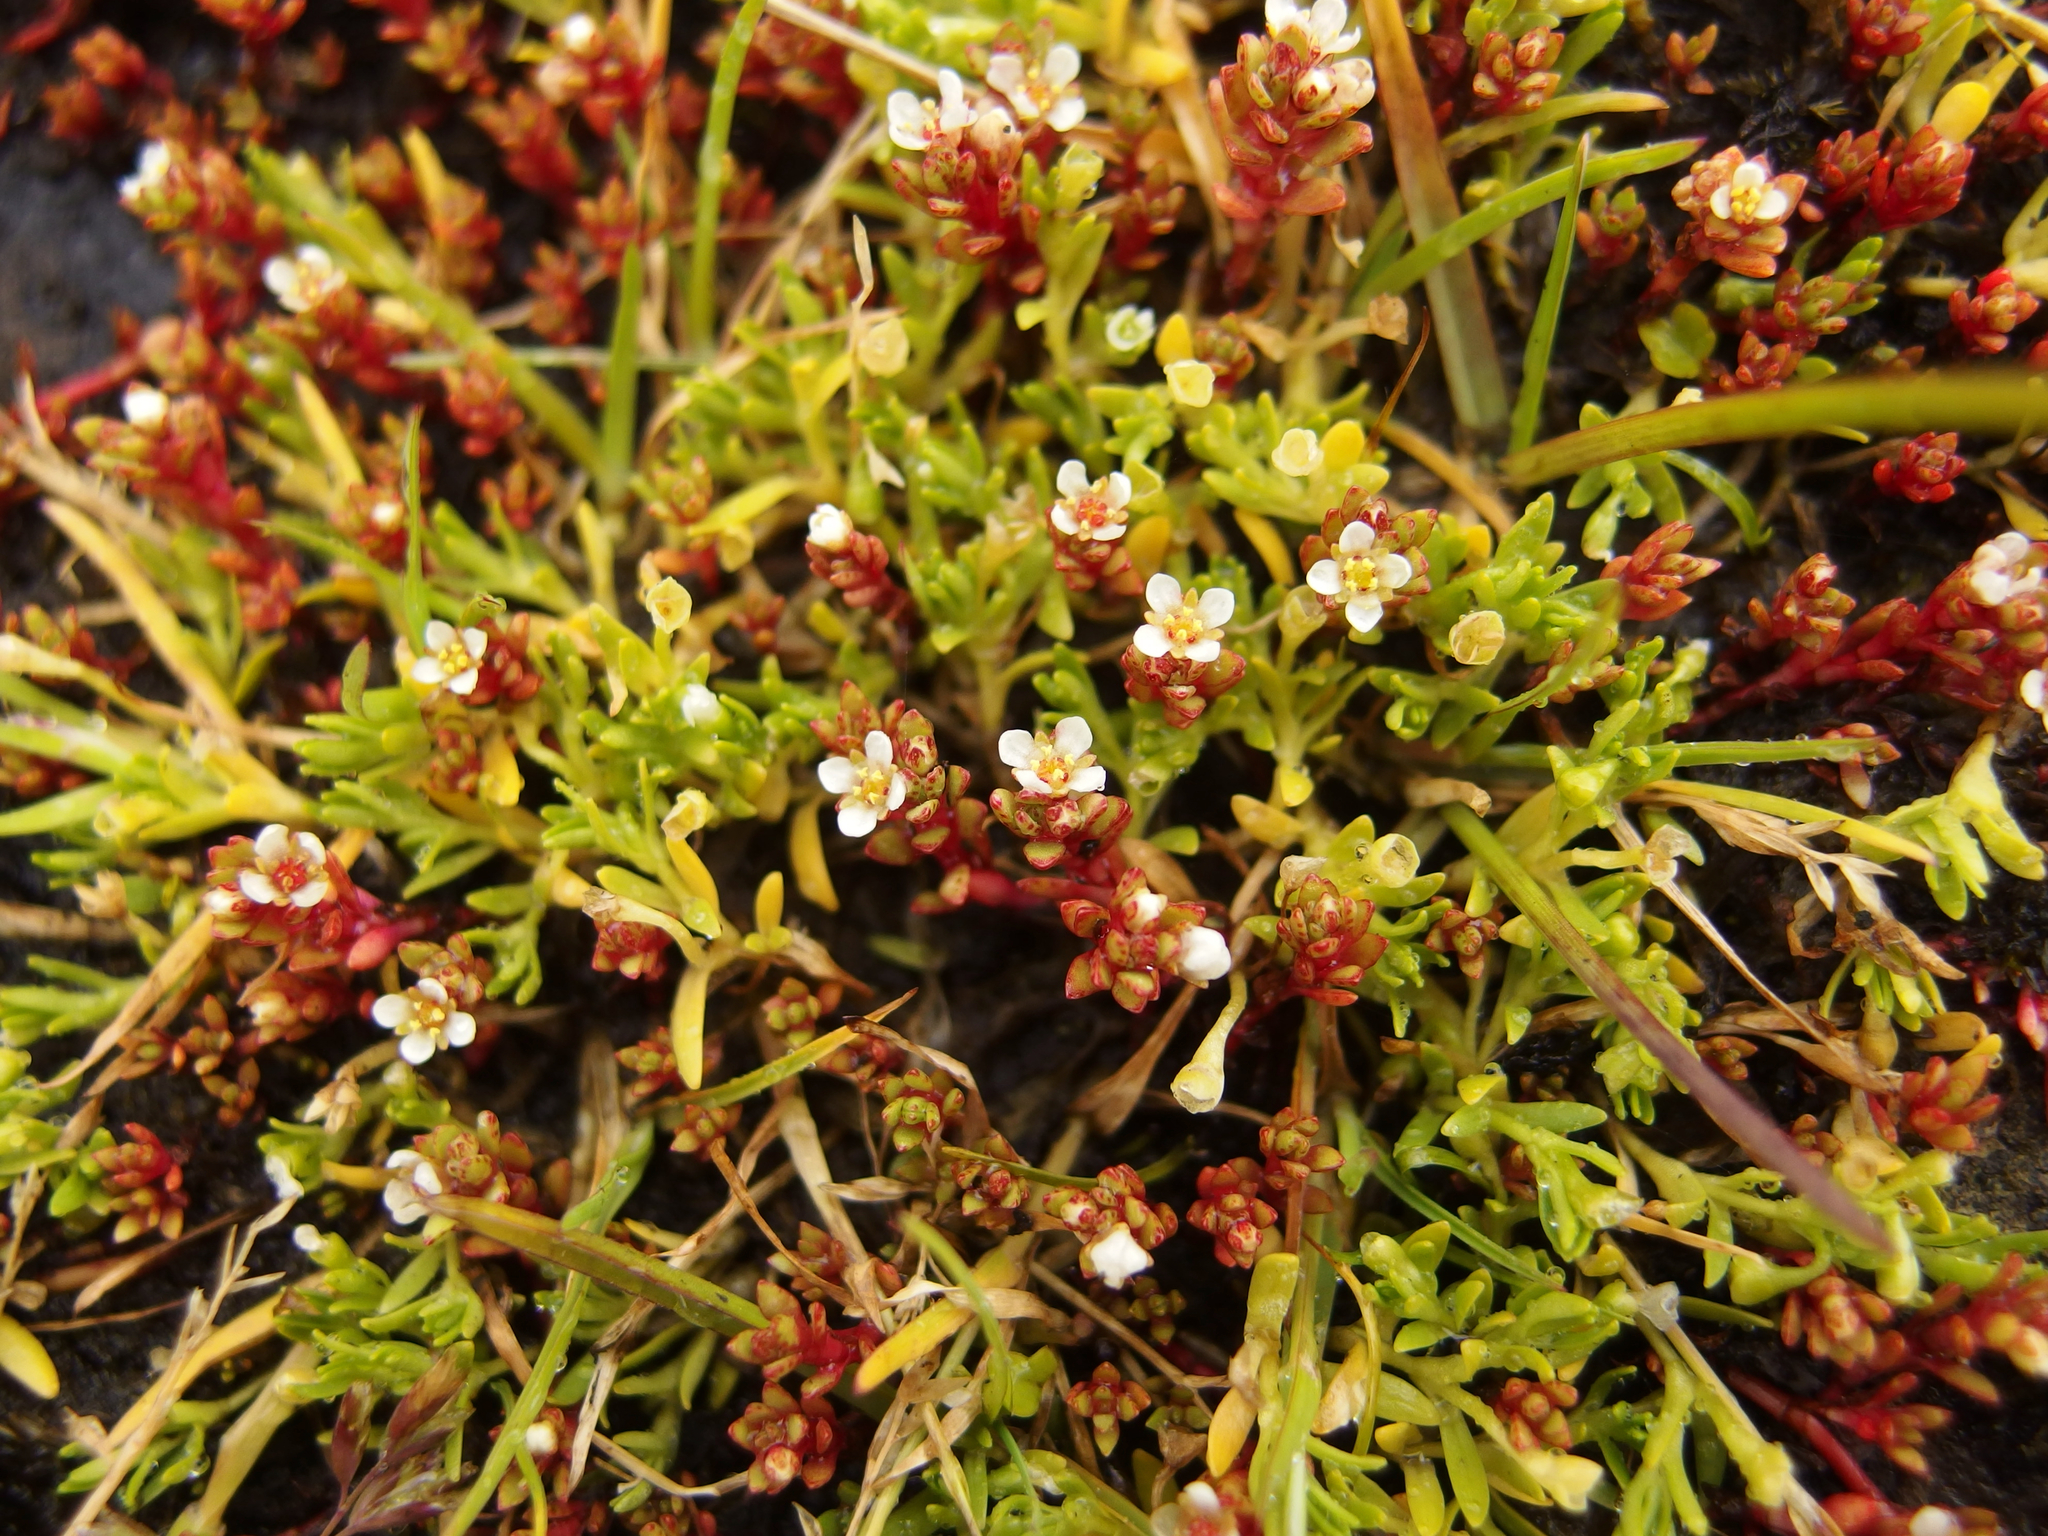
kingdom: Plantae
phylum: Tracheophyta
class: Magnoliopsida
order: Saxifragales
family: Crassulaceae
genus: Crassula
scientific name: Crassula moschata
